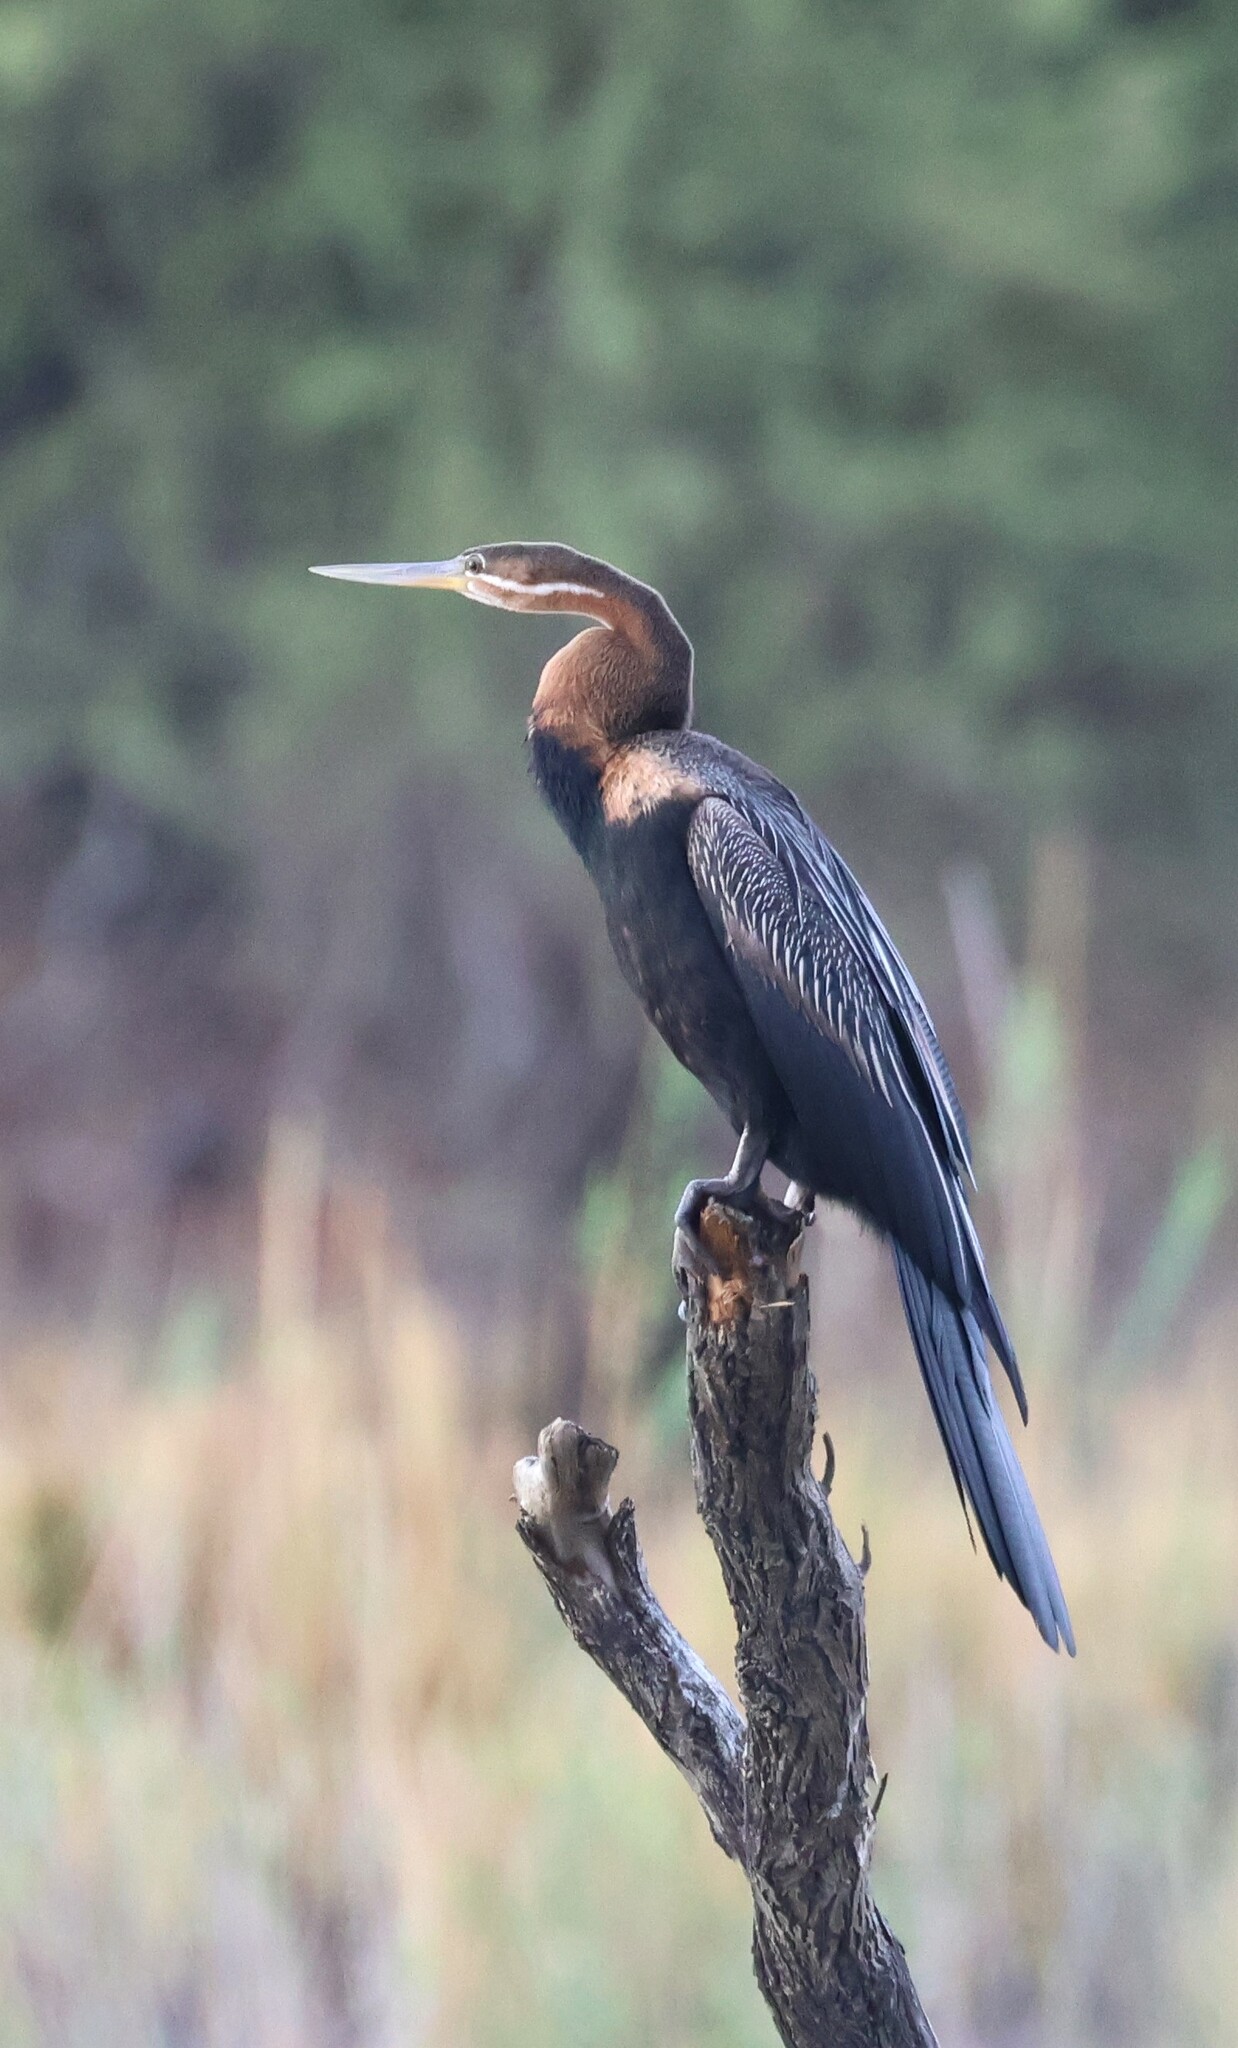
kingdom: Animalia
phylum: Chordata
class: Aves
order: Suliformes
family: Anhingidae
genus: Anhinga
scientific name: Anhinga rufa
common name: African darter
